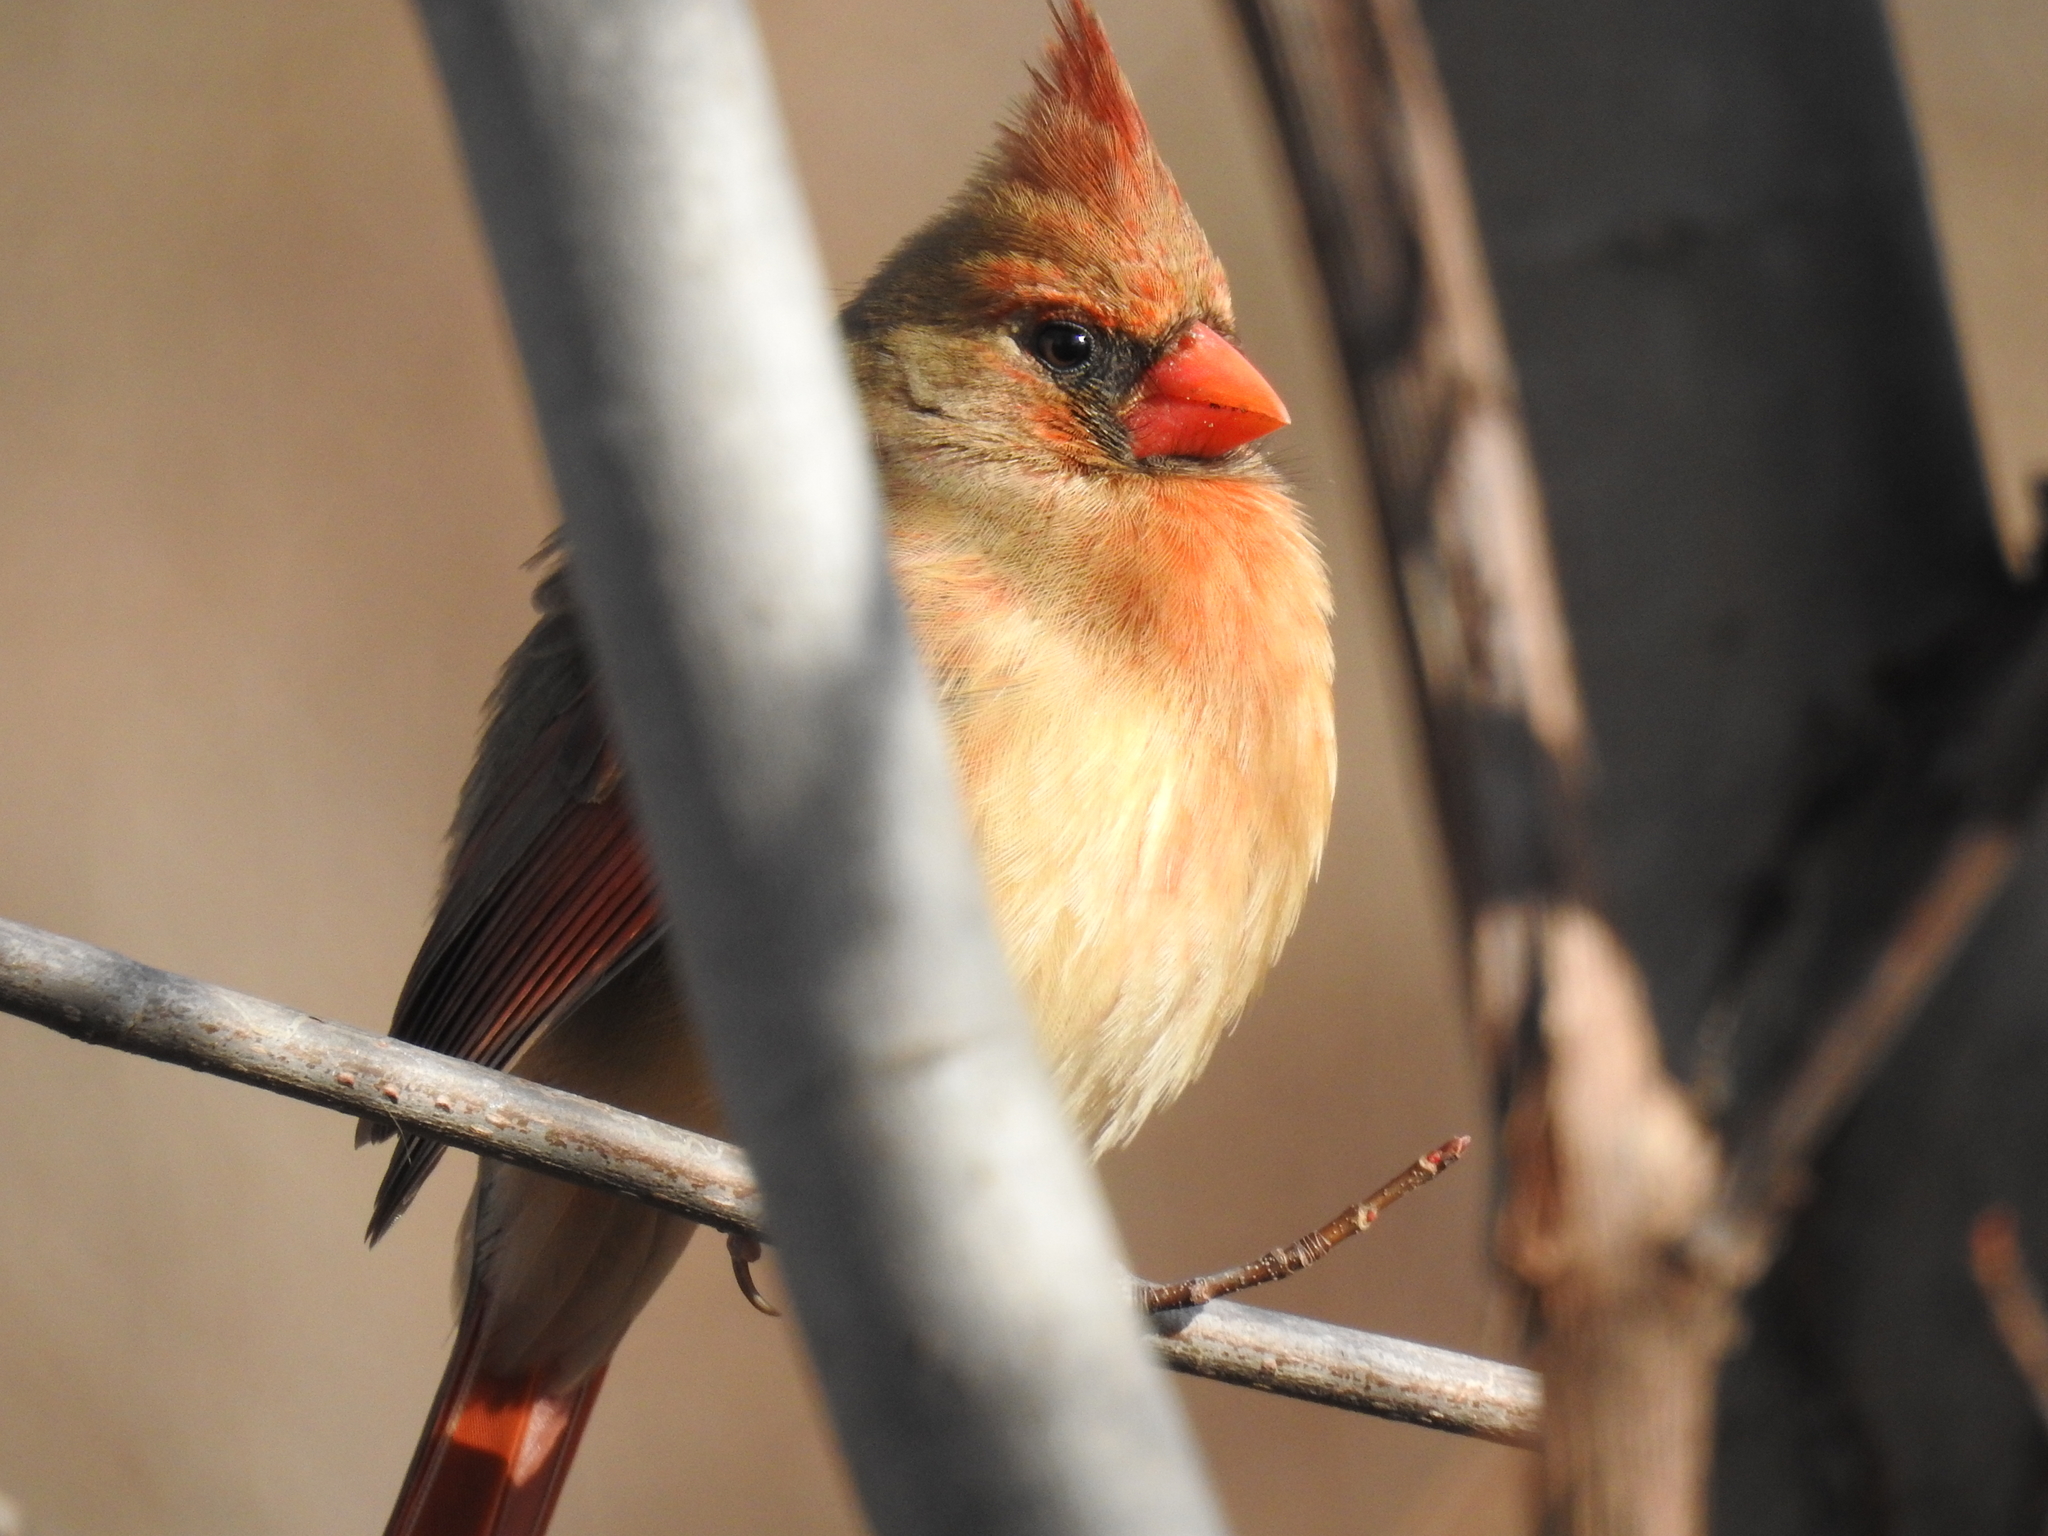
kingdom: Animalia
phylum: Chordata
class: Aves
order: Passeriformes
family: Cardinalidae
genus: Cardinalis
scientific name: Cardinalis cardinalis
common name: Northern cardinal
